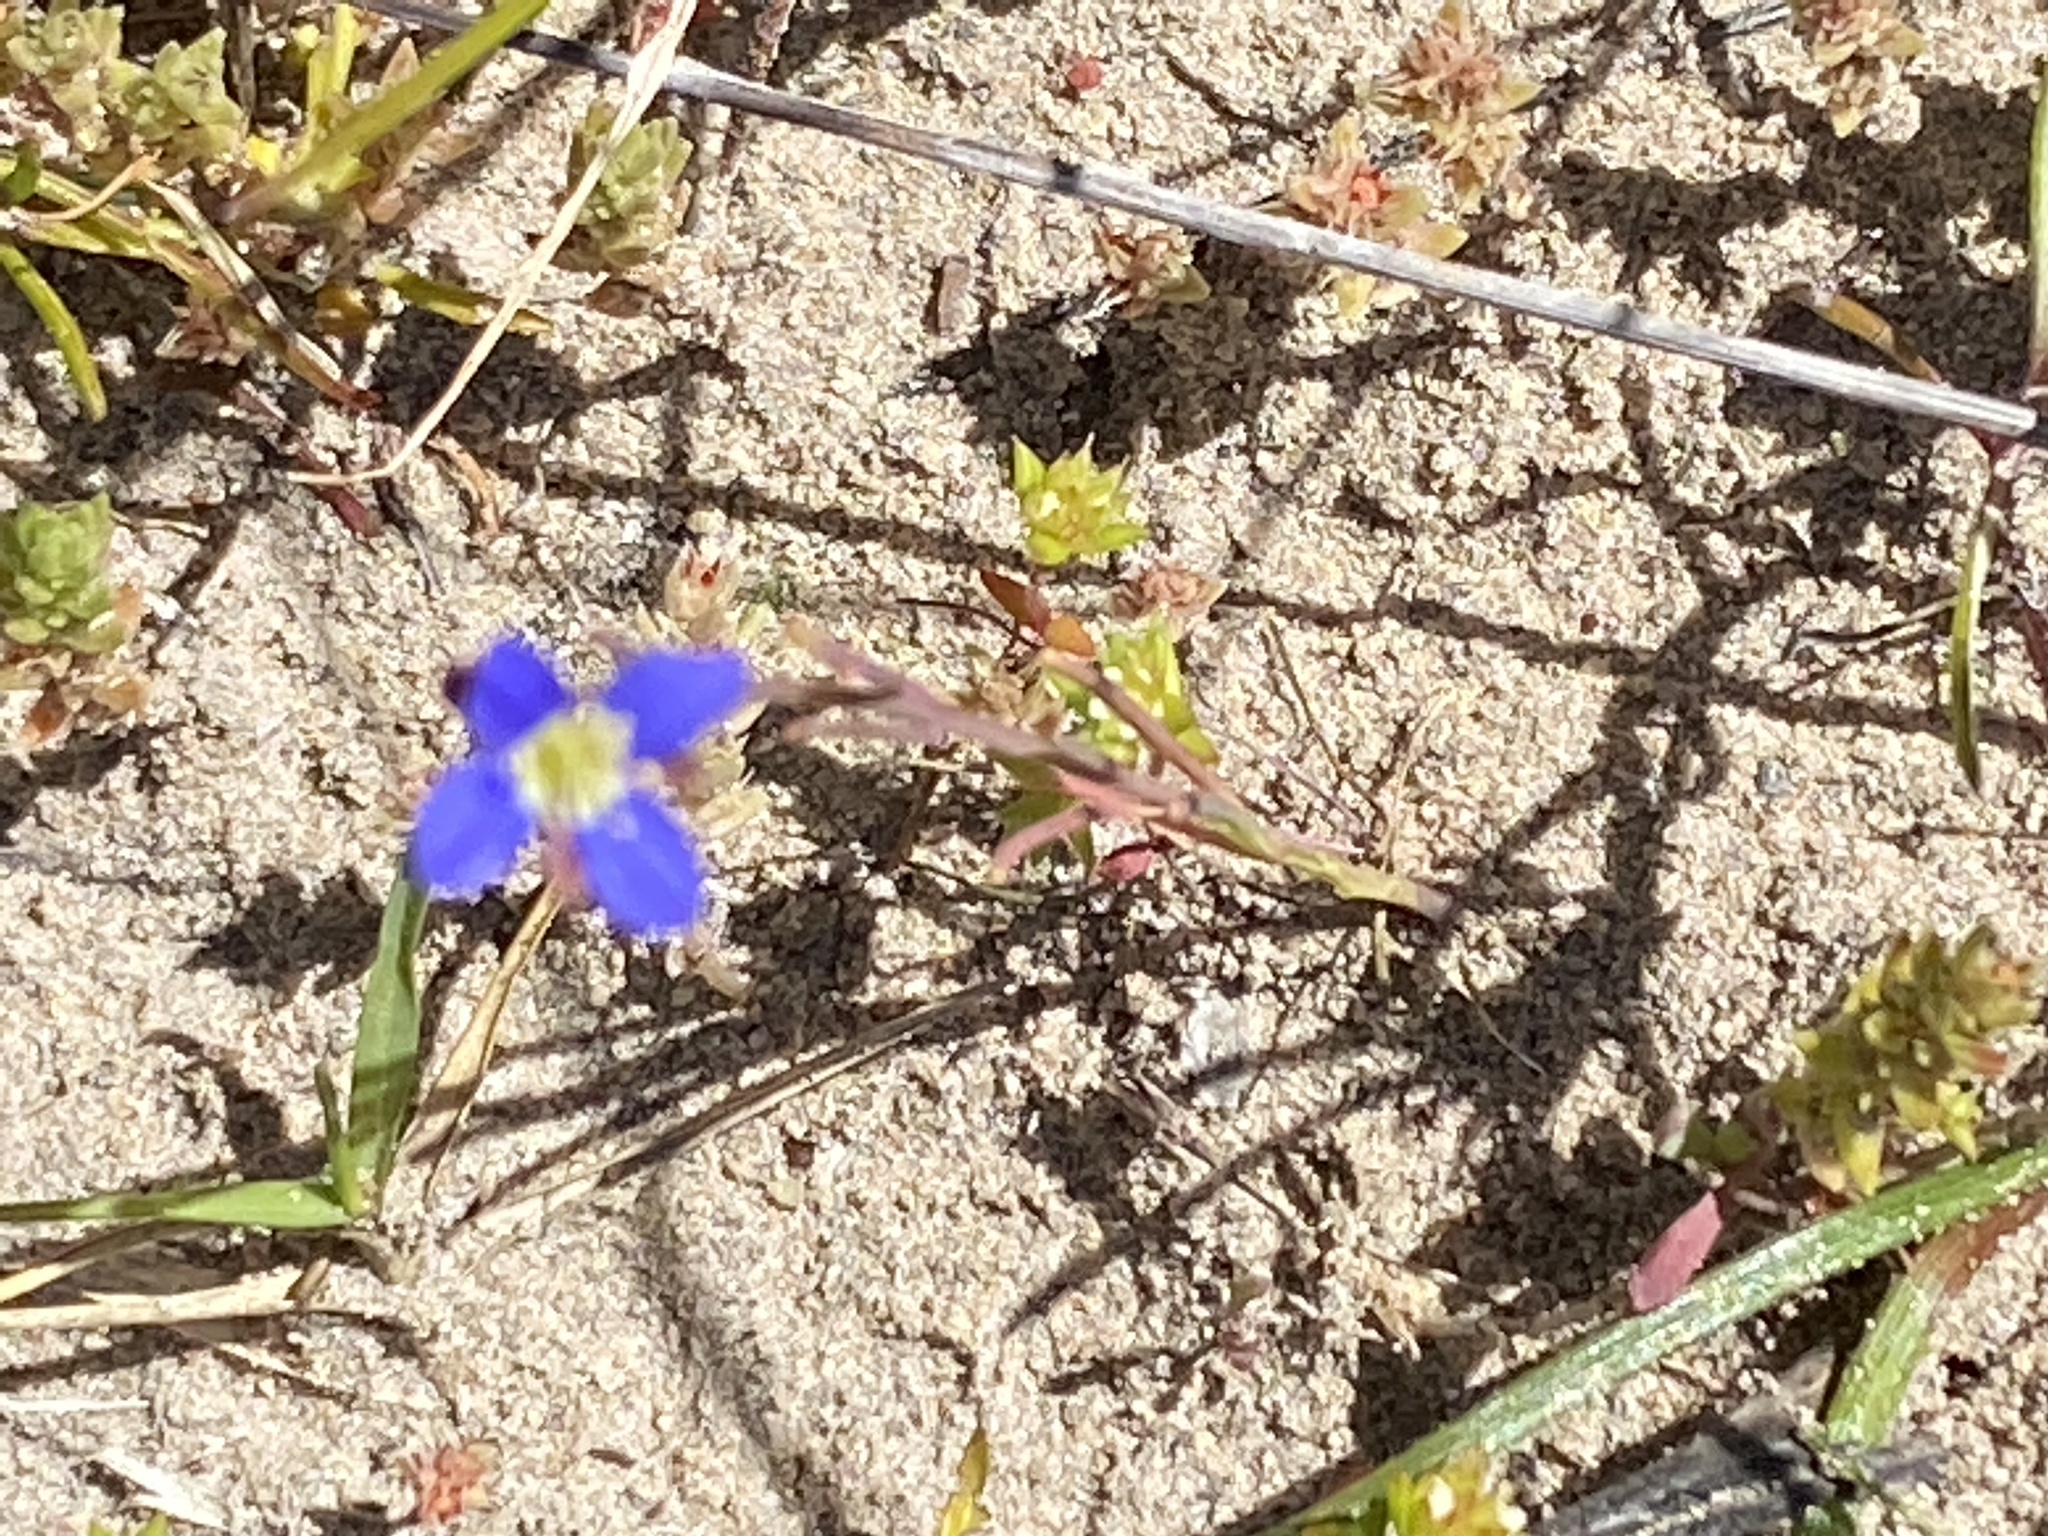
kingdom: Plantae
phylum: Tracheophyta
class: Magnoliopsida
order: Brassicales
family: Brassicaceae
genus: Heliophila
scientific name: Heliophila adpressa
